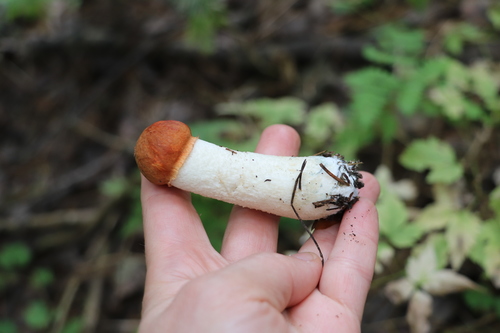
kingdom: Fungi
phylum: Basidiomycota
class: Agaricomycetes
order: Boletales
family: Boletaceae
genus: Leccinum
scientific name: Leccinum albostipitatum
